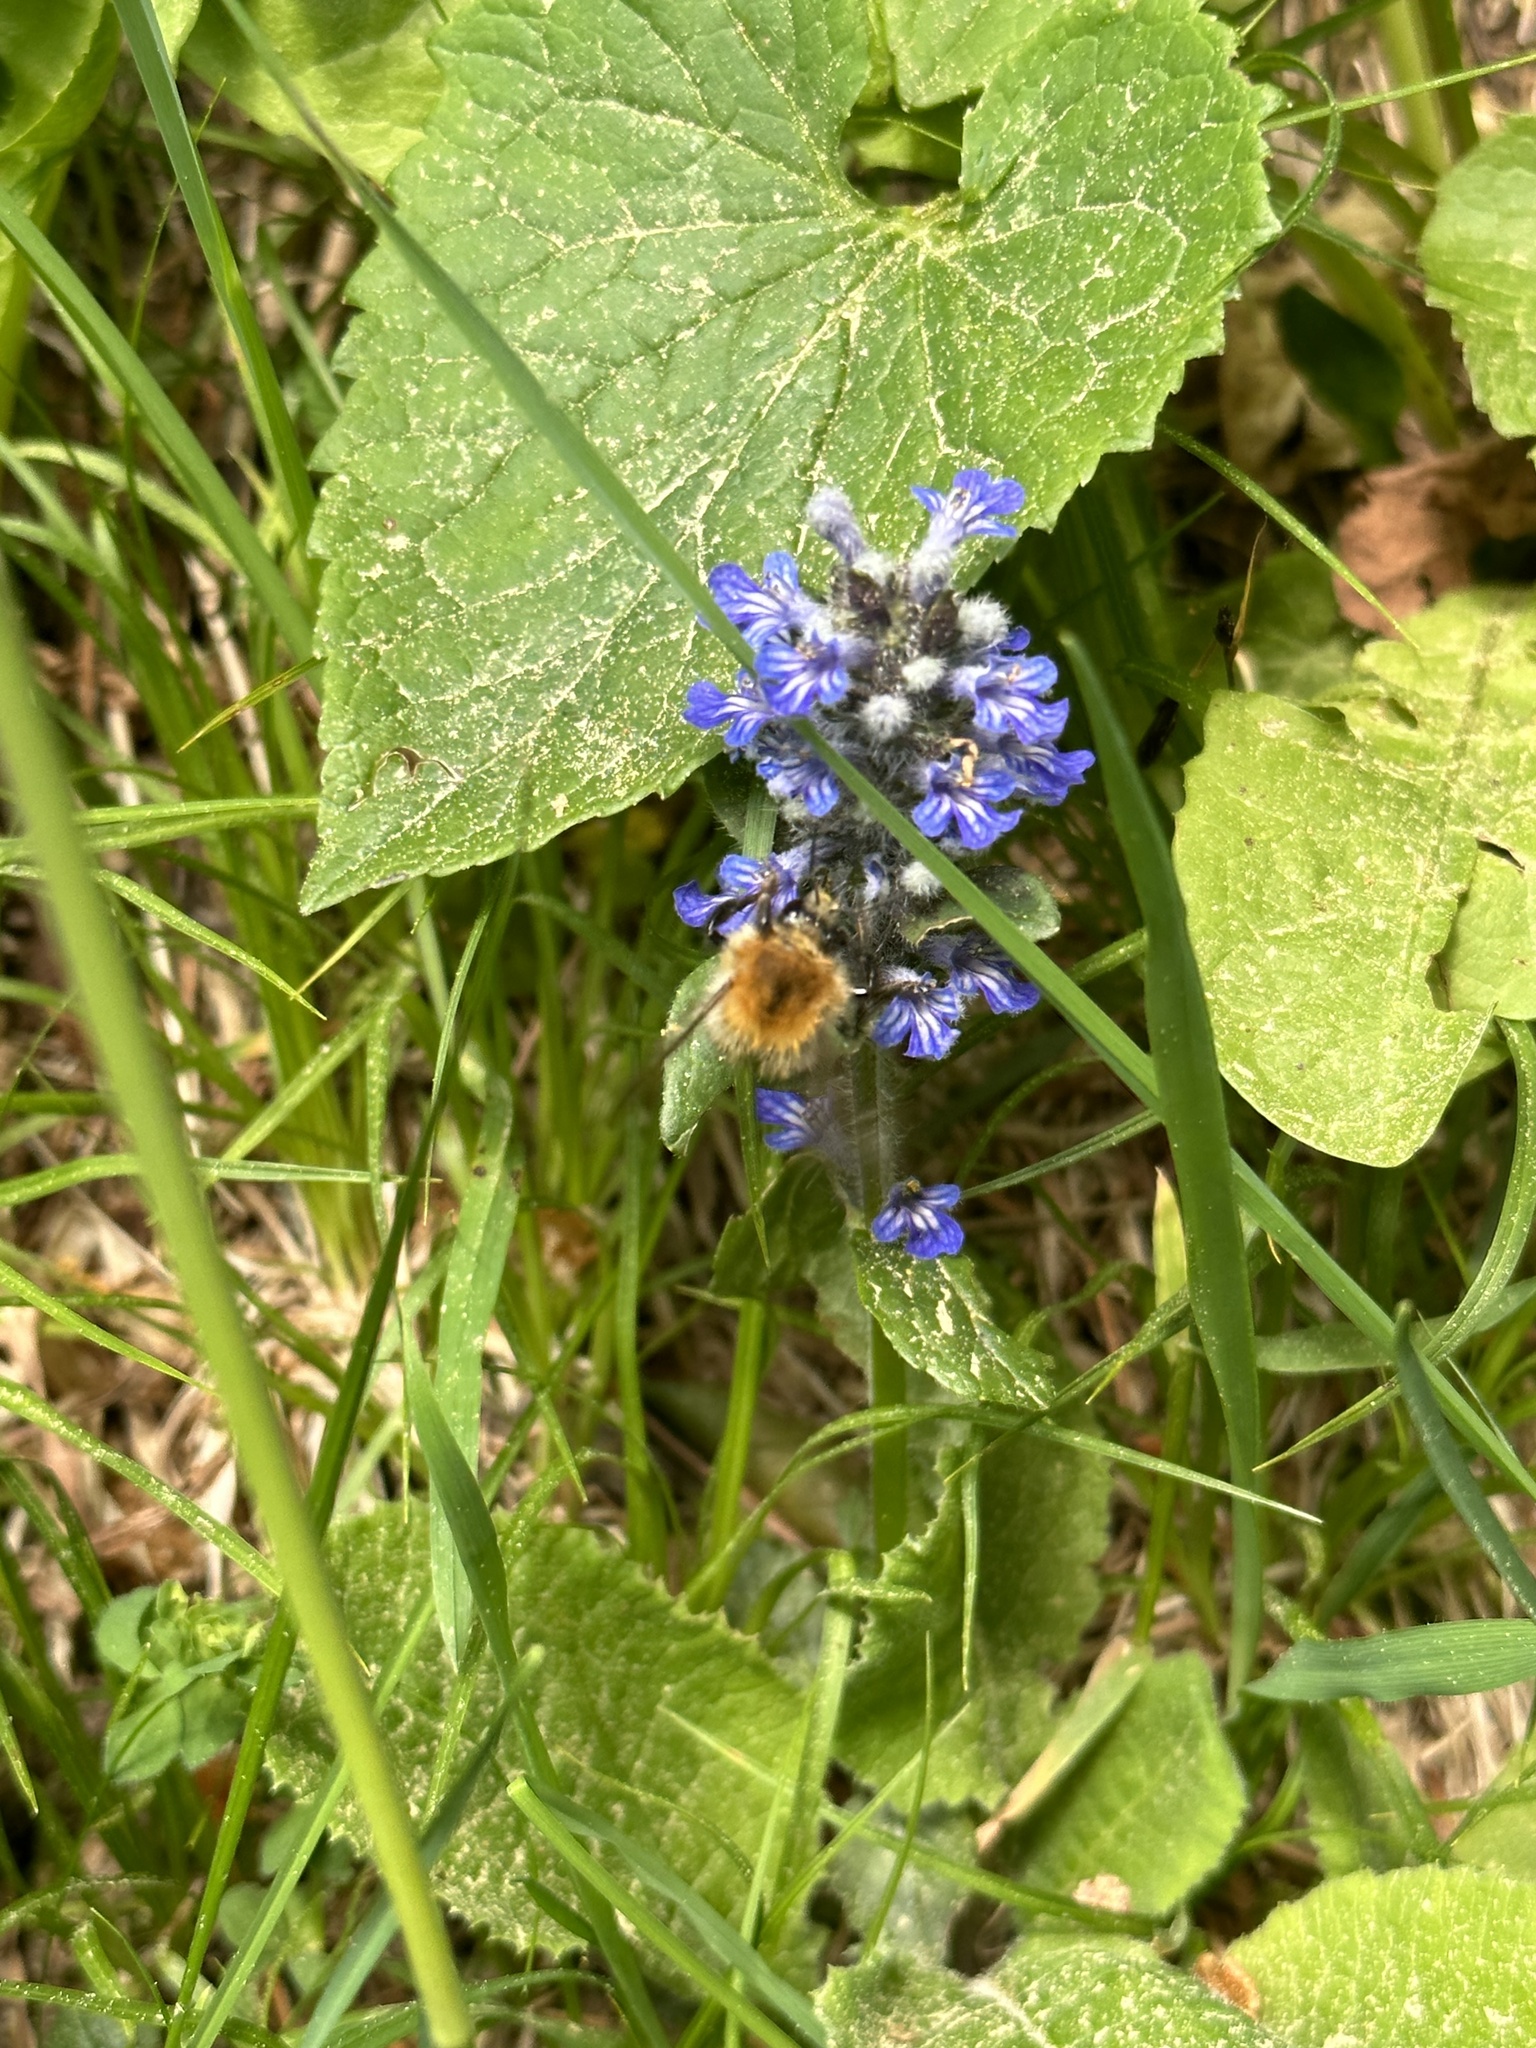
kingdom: Plantae
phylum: Tracheophyta
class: Magnoliopsida
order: Lamiales
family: Lamiaceae
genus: Ajuga
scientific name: Ajuga reptans
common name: Bugle
